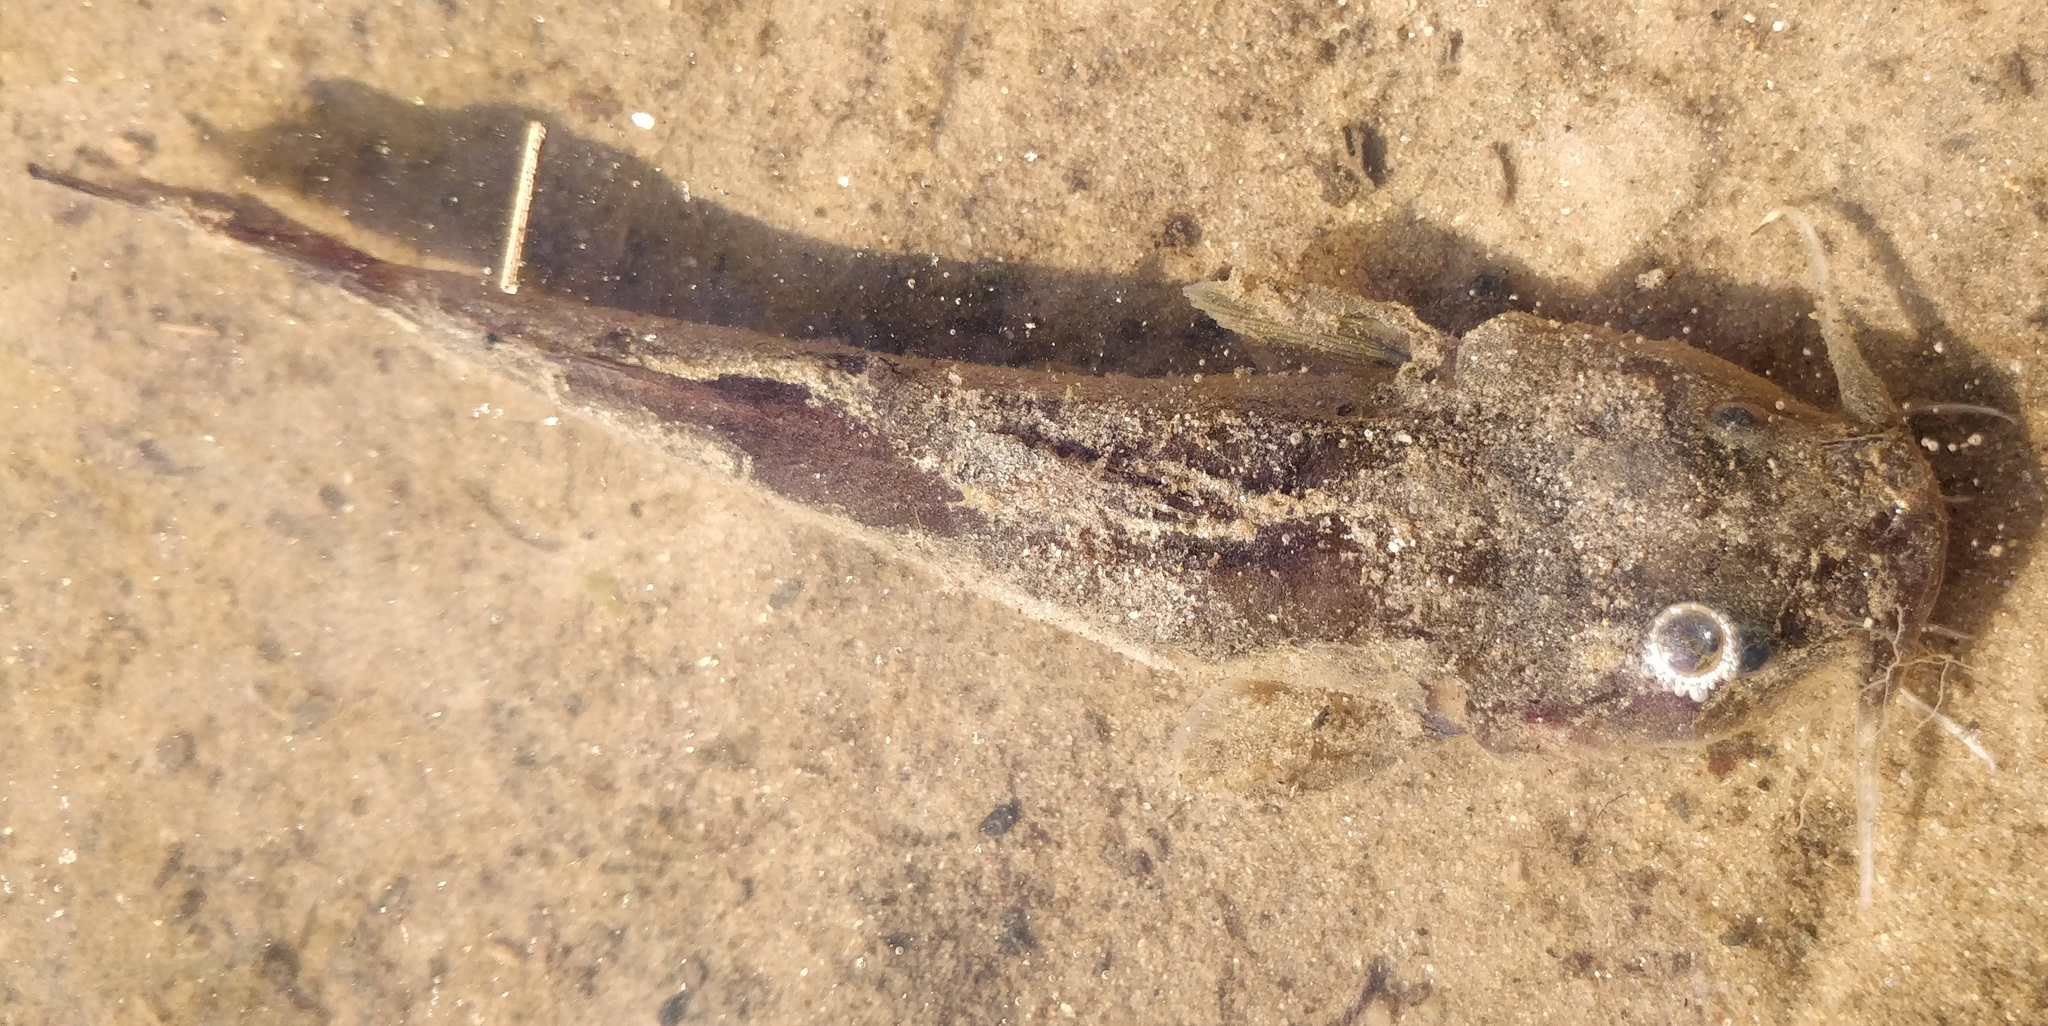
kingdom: Animalia
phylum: Chordata
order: Siluriformes
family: Ictaluridae
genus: Noturus
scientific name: Noturus insignis
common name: Margined madtom
